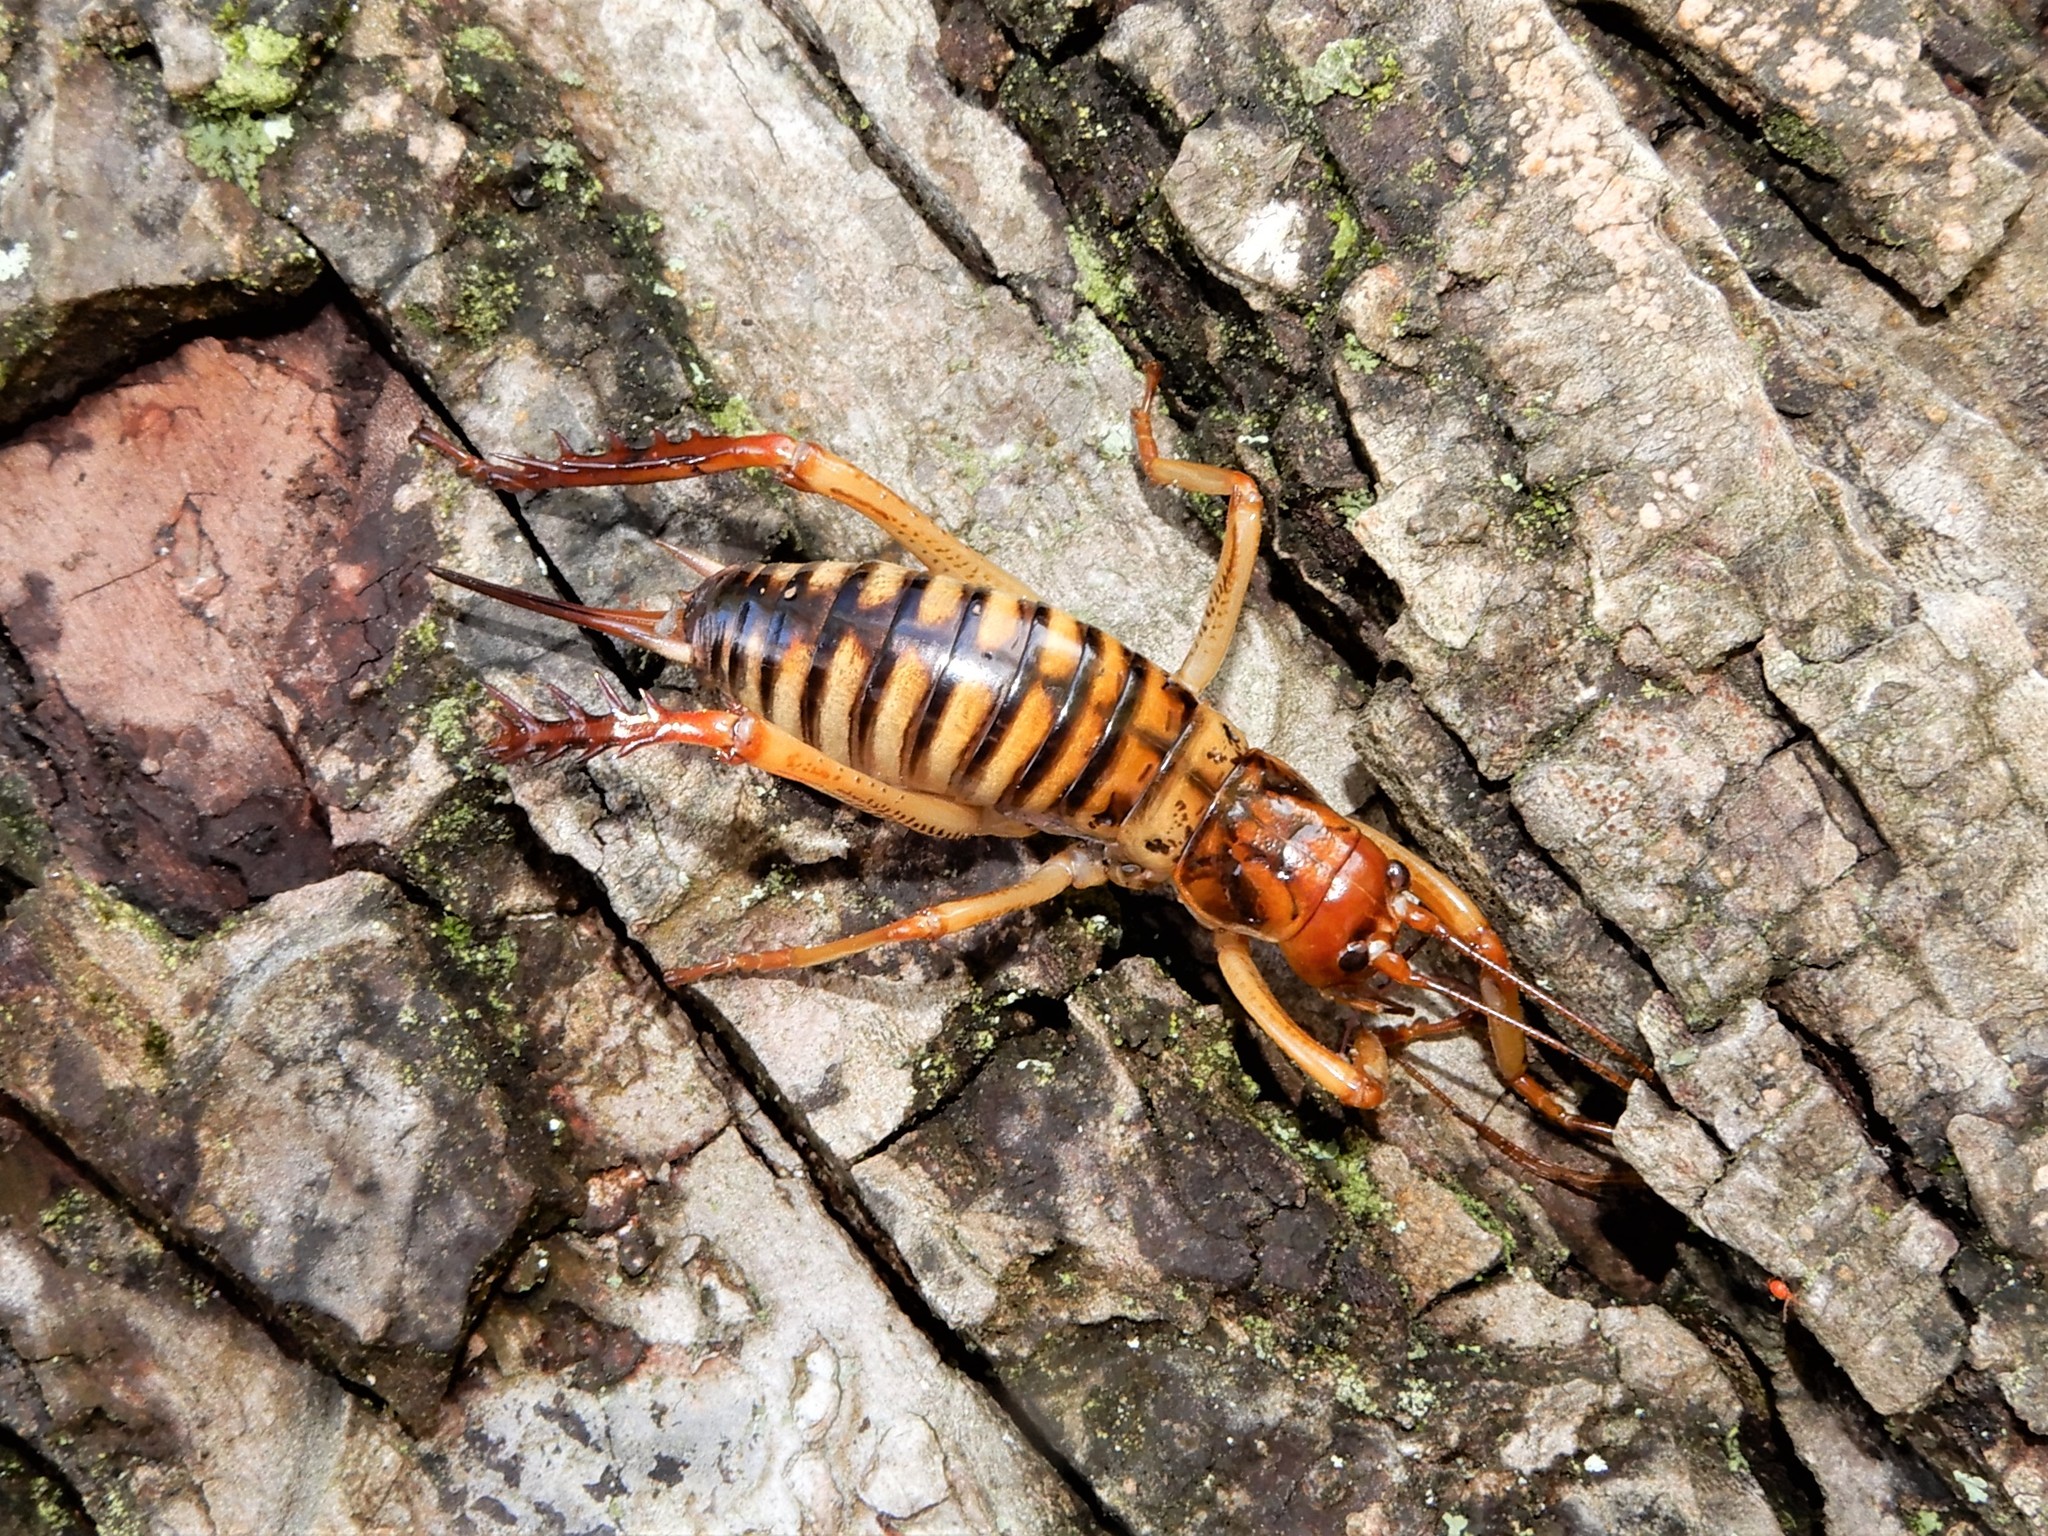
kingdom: Animalia
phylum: Arthropoda
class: Insecta
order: Orthoptera
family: Anostostomatidae
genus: Hemideina
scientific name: Hemideina crassidens
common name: Wellington tree weta
